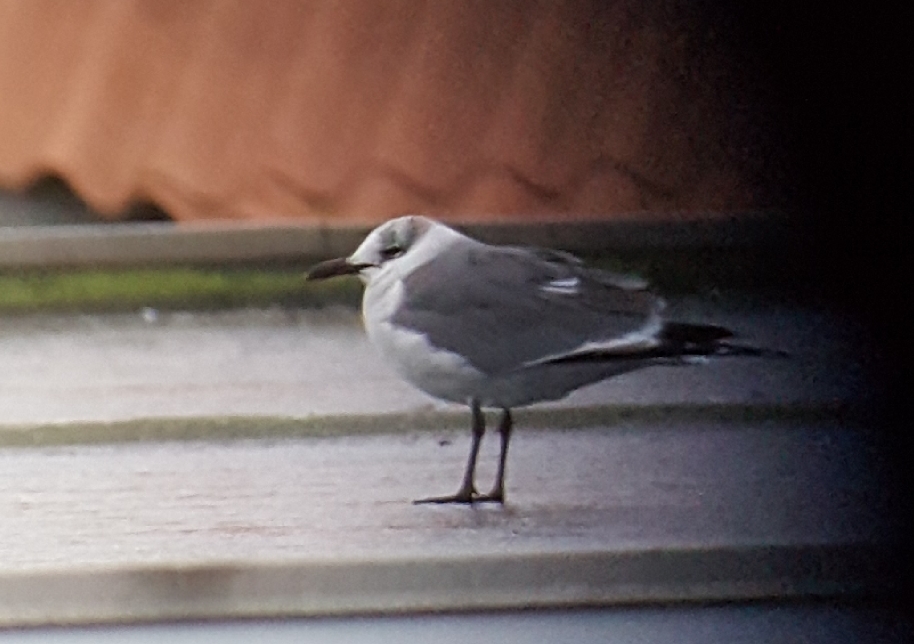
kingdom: Animalia
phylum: Chordata
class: Aves
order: Charadriiformes
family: Laridae
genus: Leucophaeus
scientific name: Leucophaeus atricilla
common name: Laughing gull
